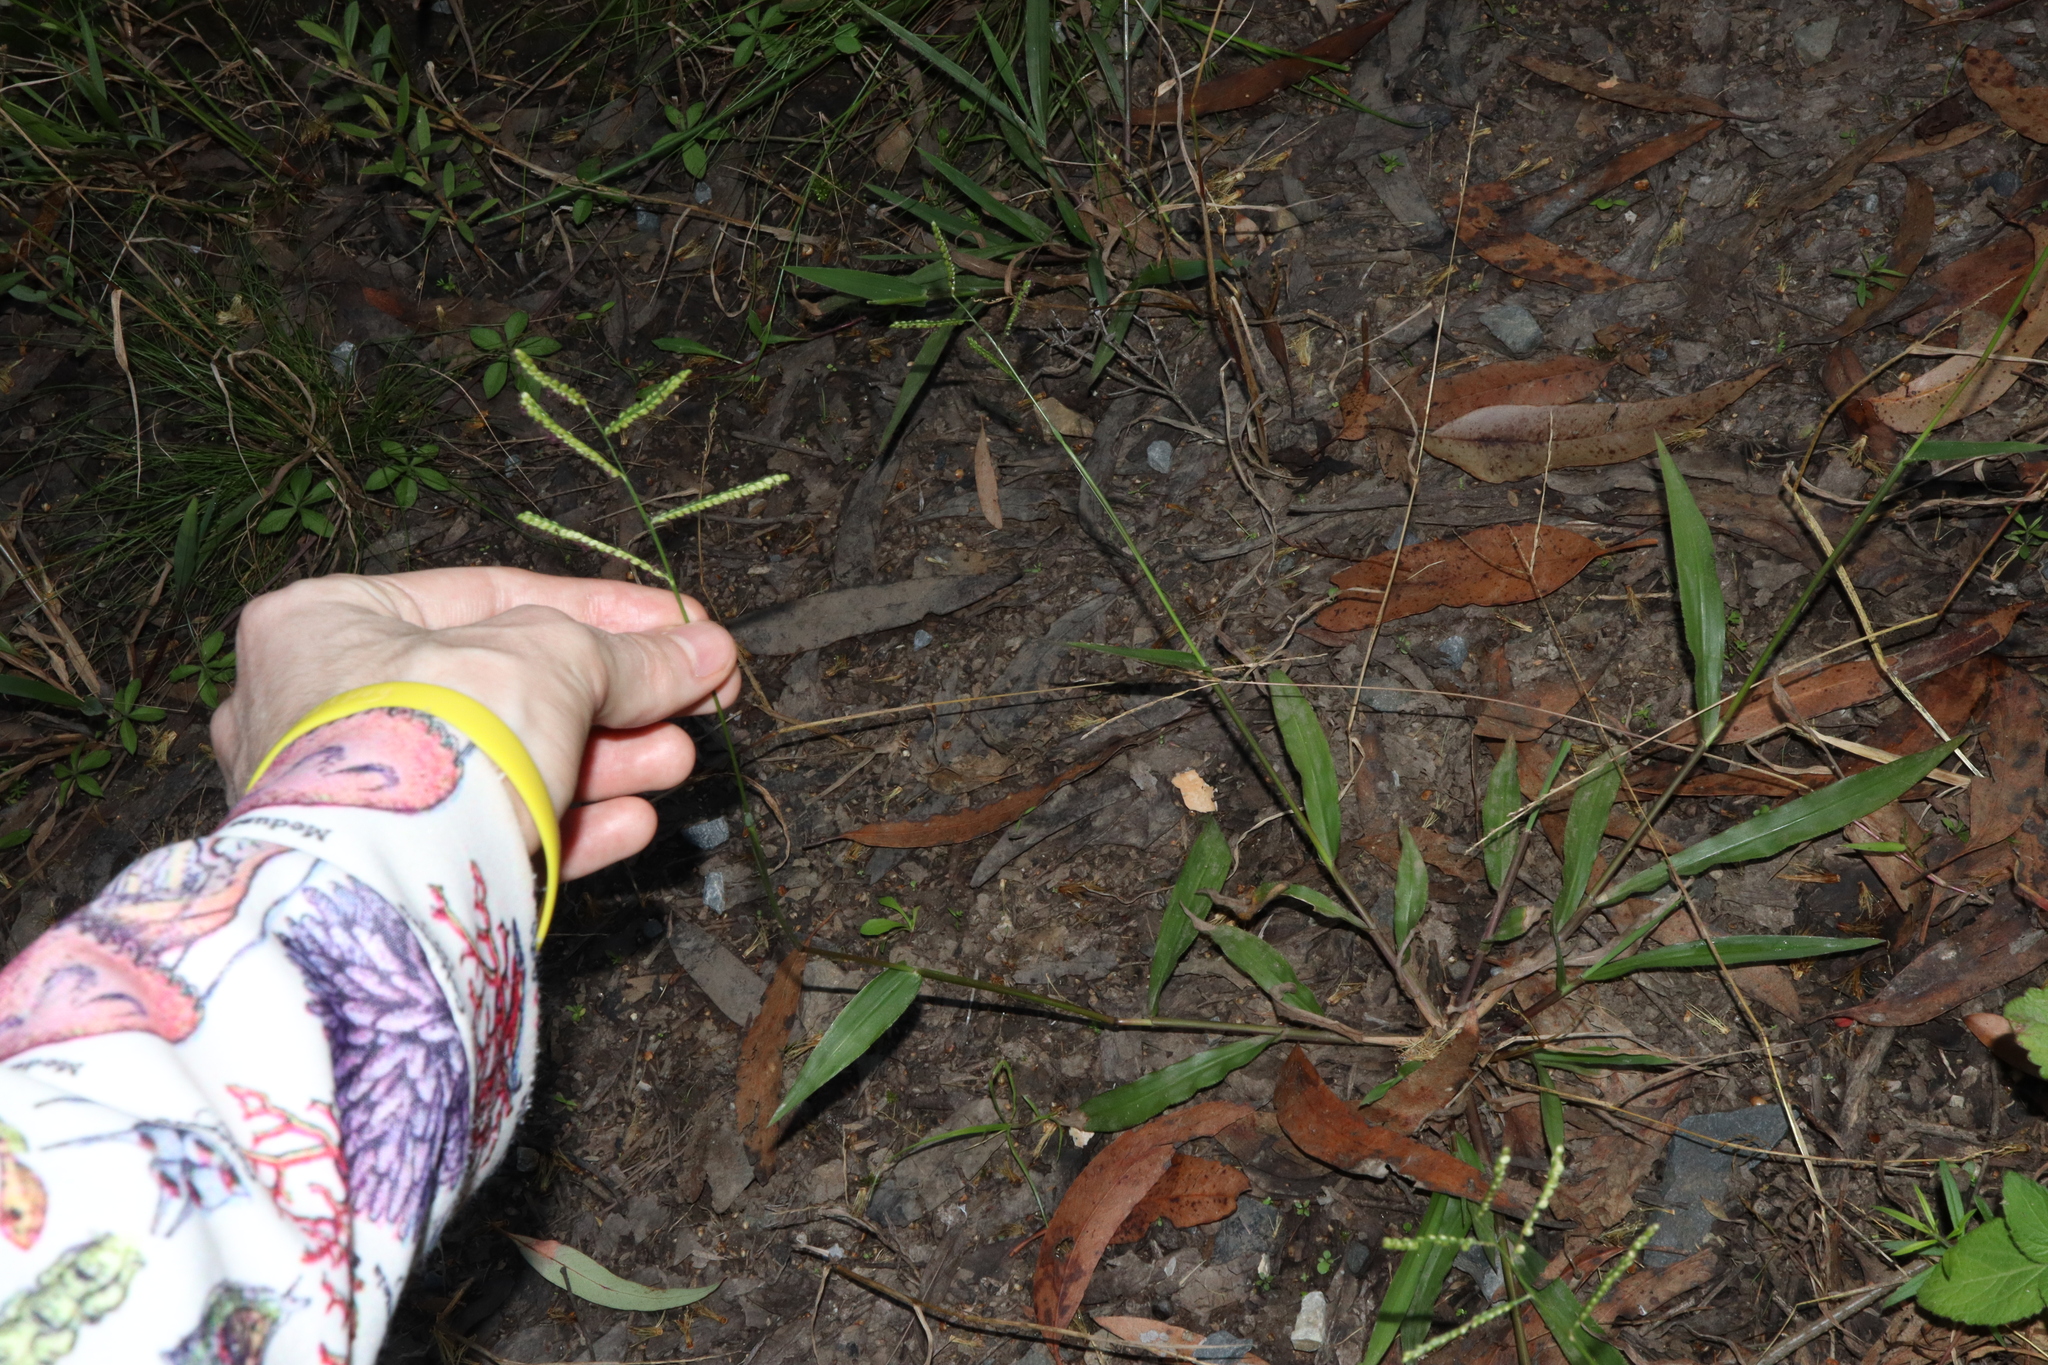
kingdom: Plantae
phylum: Tracheophyta
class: Liliopsida
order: Poales
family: Poaceae
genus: Paspalum
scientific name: Paspalum mandiocanum
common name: Paspalum
